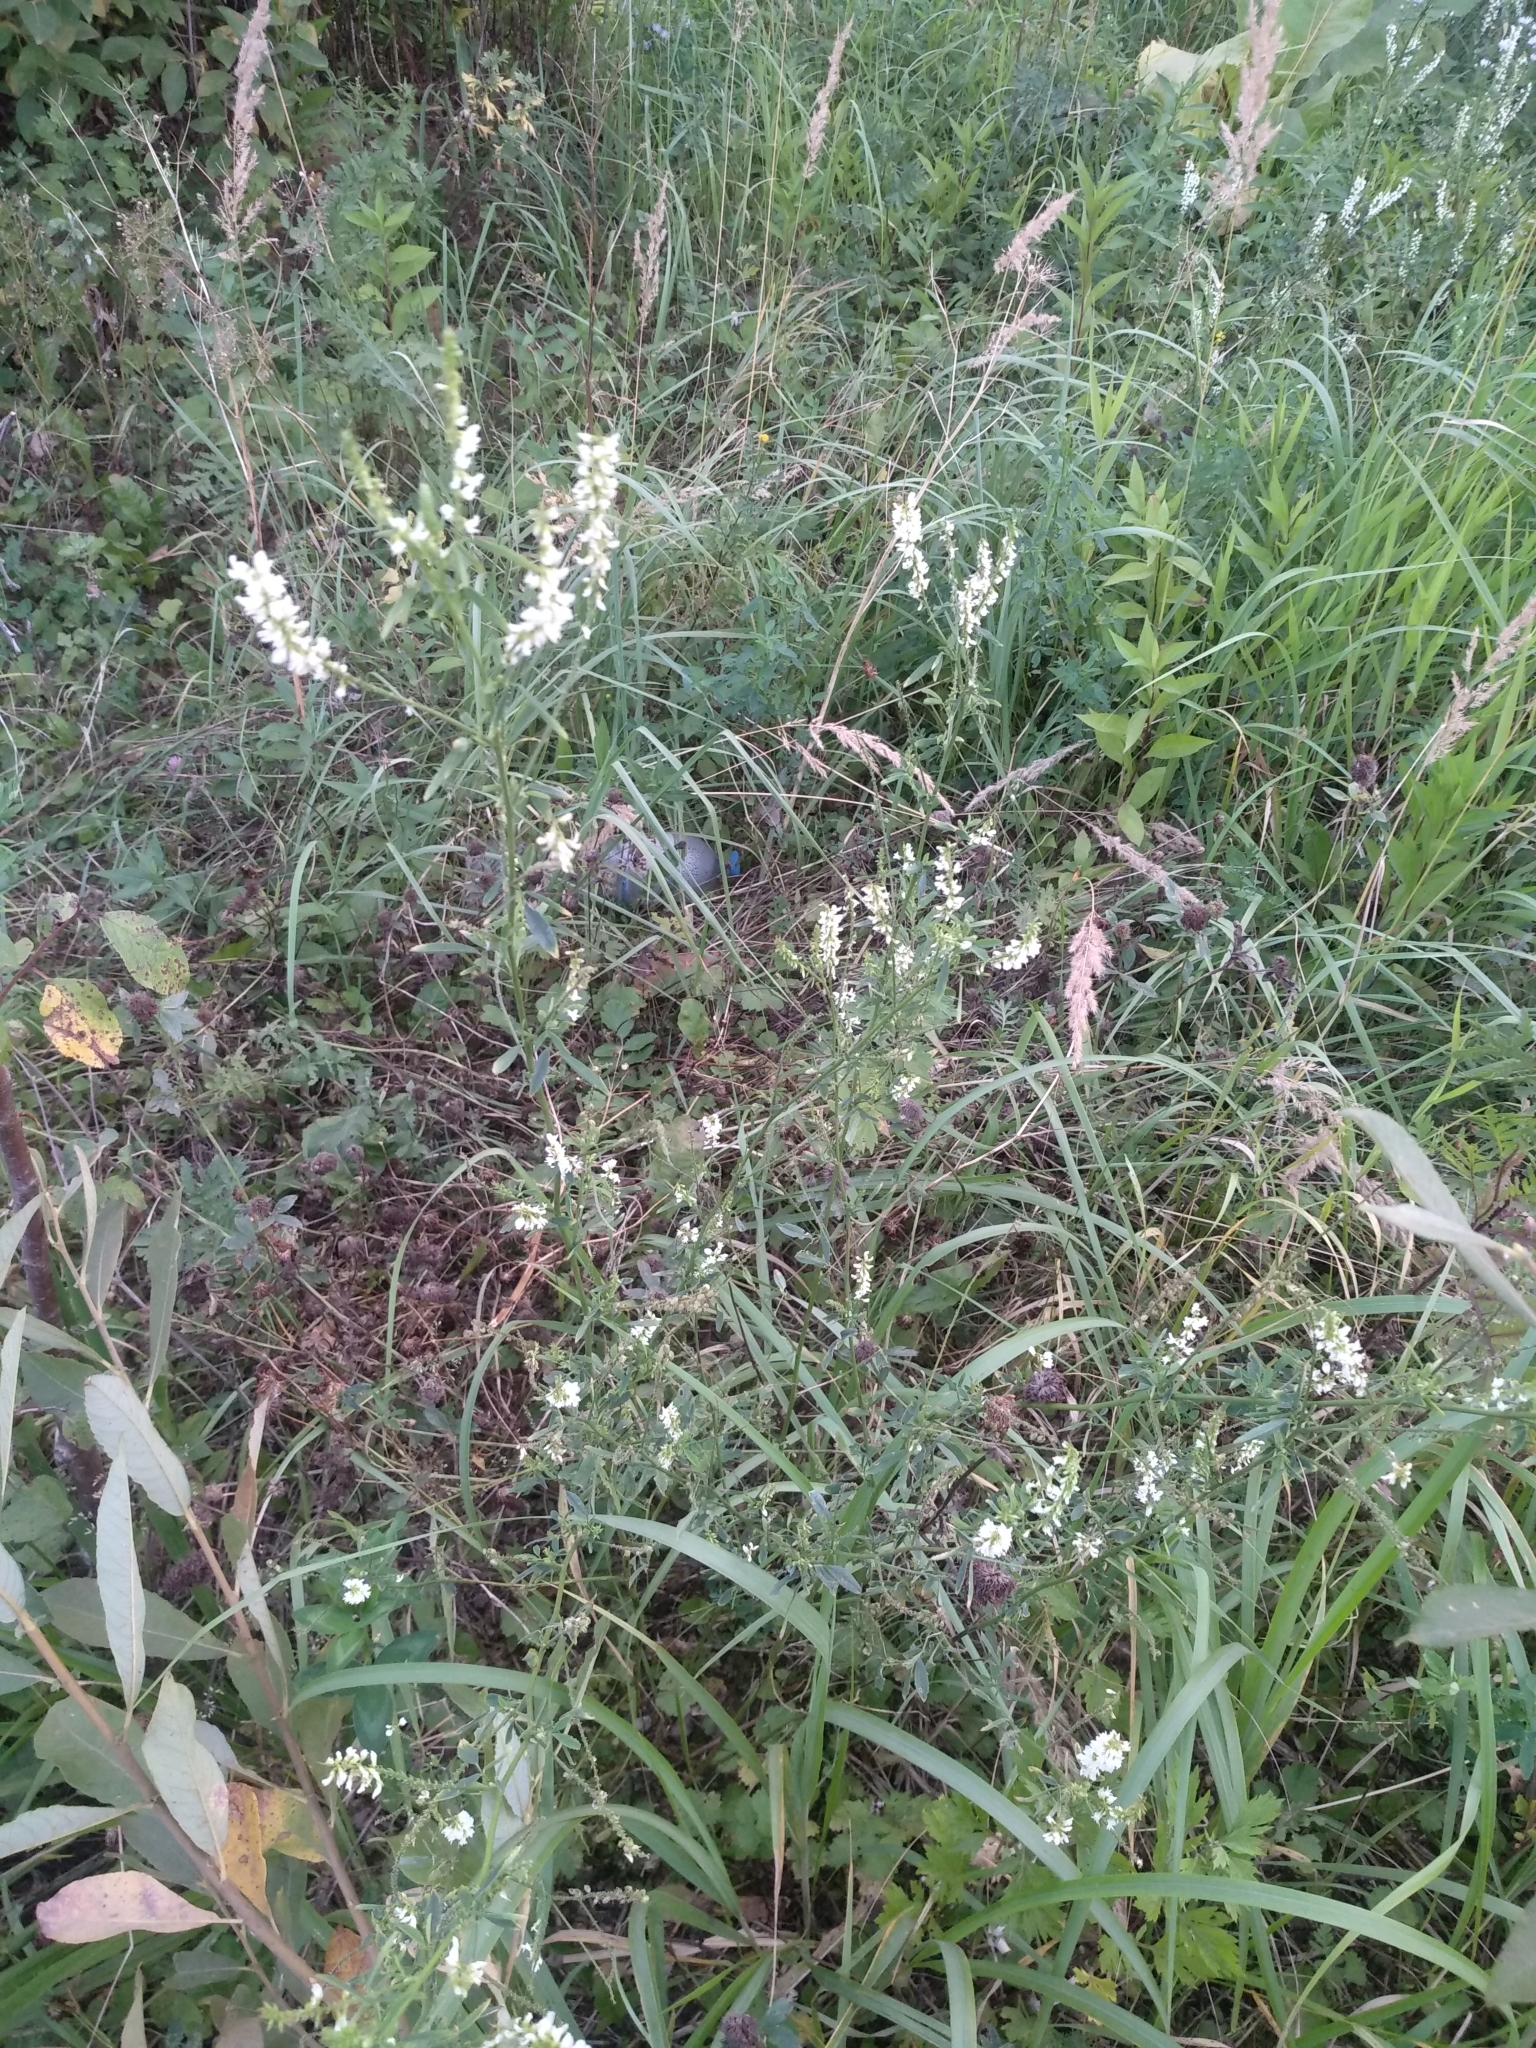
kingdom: Plantae
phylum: Tracheophyta
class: Magnoliopsida
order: Fabales
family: Fabaceae
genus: Melilotus
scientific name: Melilotus albus
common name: White melilot
